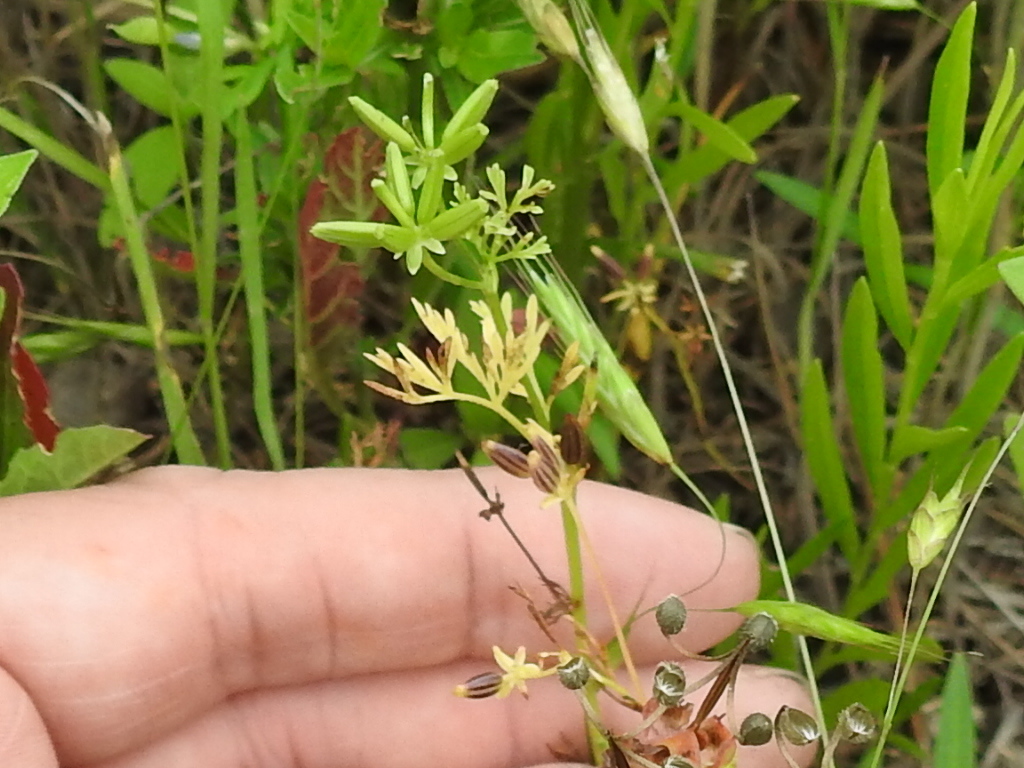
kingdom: Plantae
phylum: Tracheophyta
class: Magnoliopsida
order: Apiales
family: Apiaceae
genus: Chaerophyllum
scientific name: Chaerophyllum tainturieri
